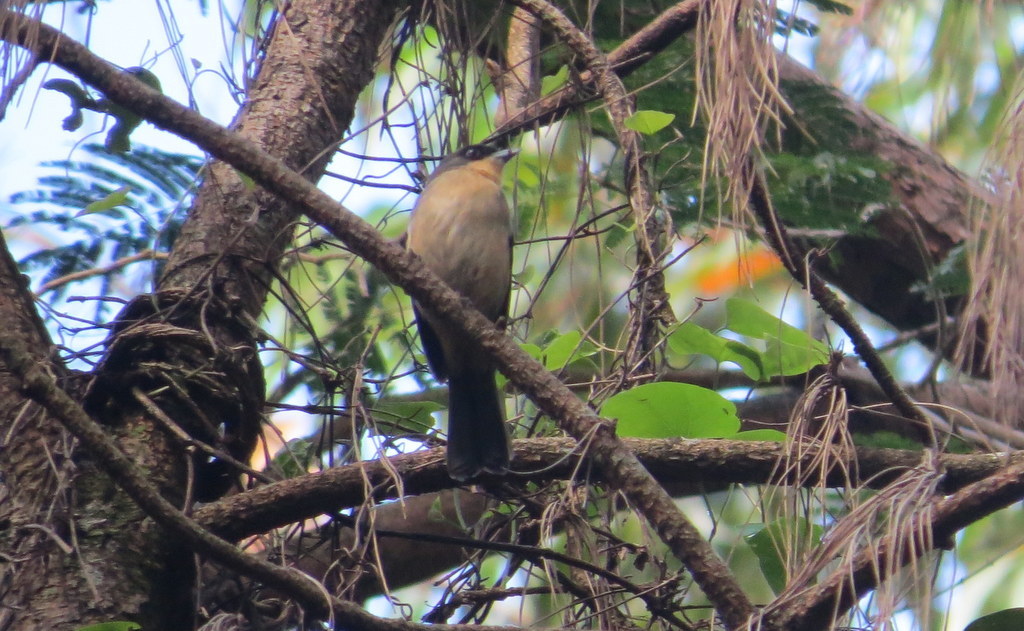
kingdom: Animalia
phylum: Chordata
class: Aves
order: Passeriformes
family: Thraupidae
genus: Trichothraupis
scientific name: Trichothraupis melanops
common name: Black-goggled tanager
